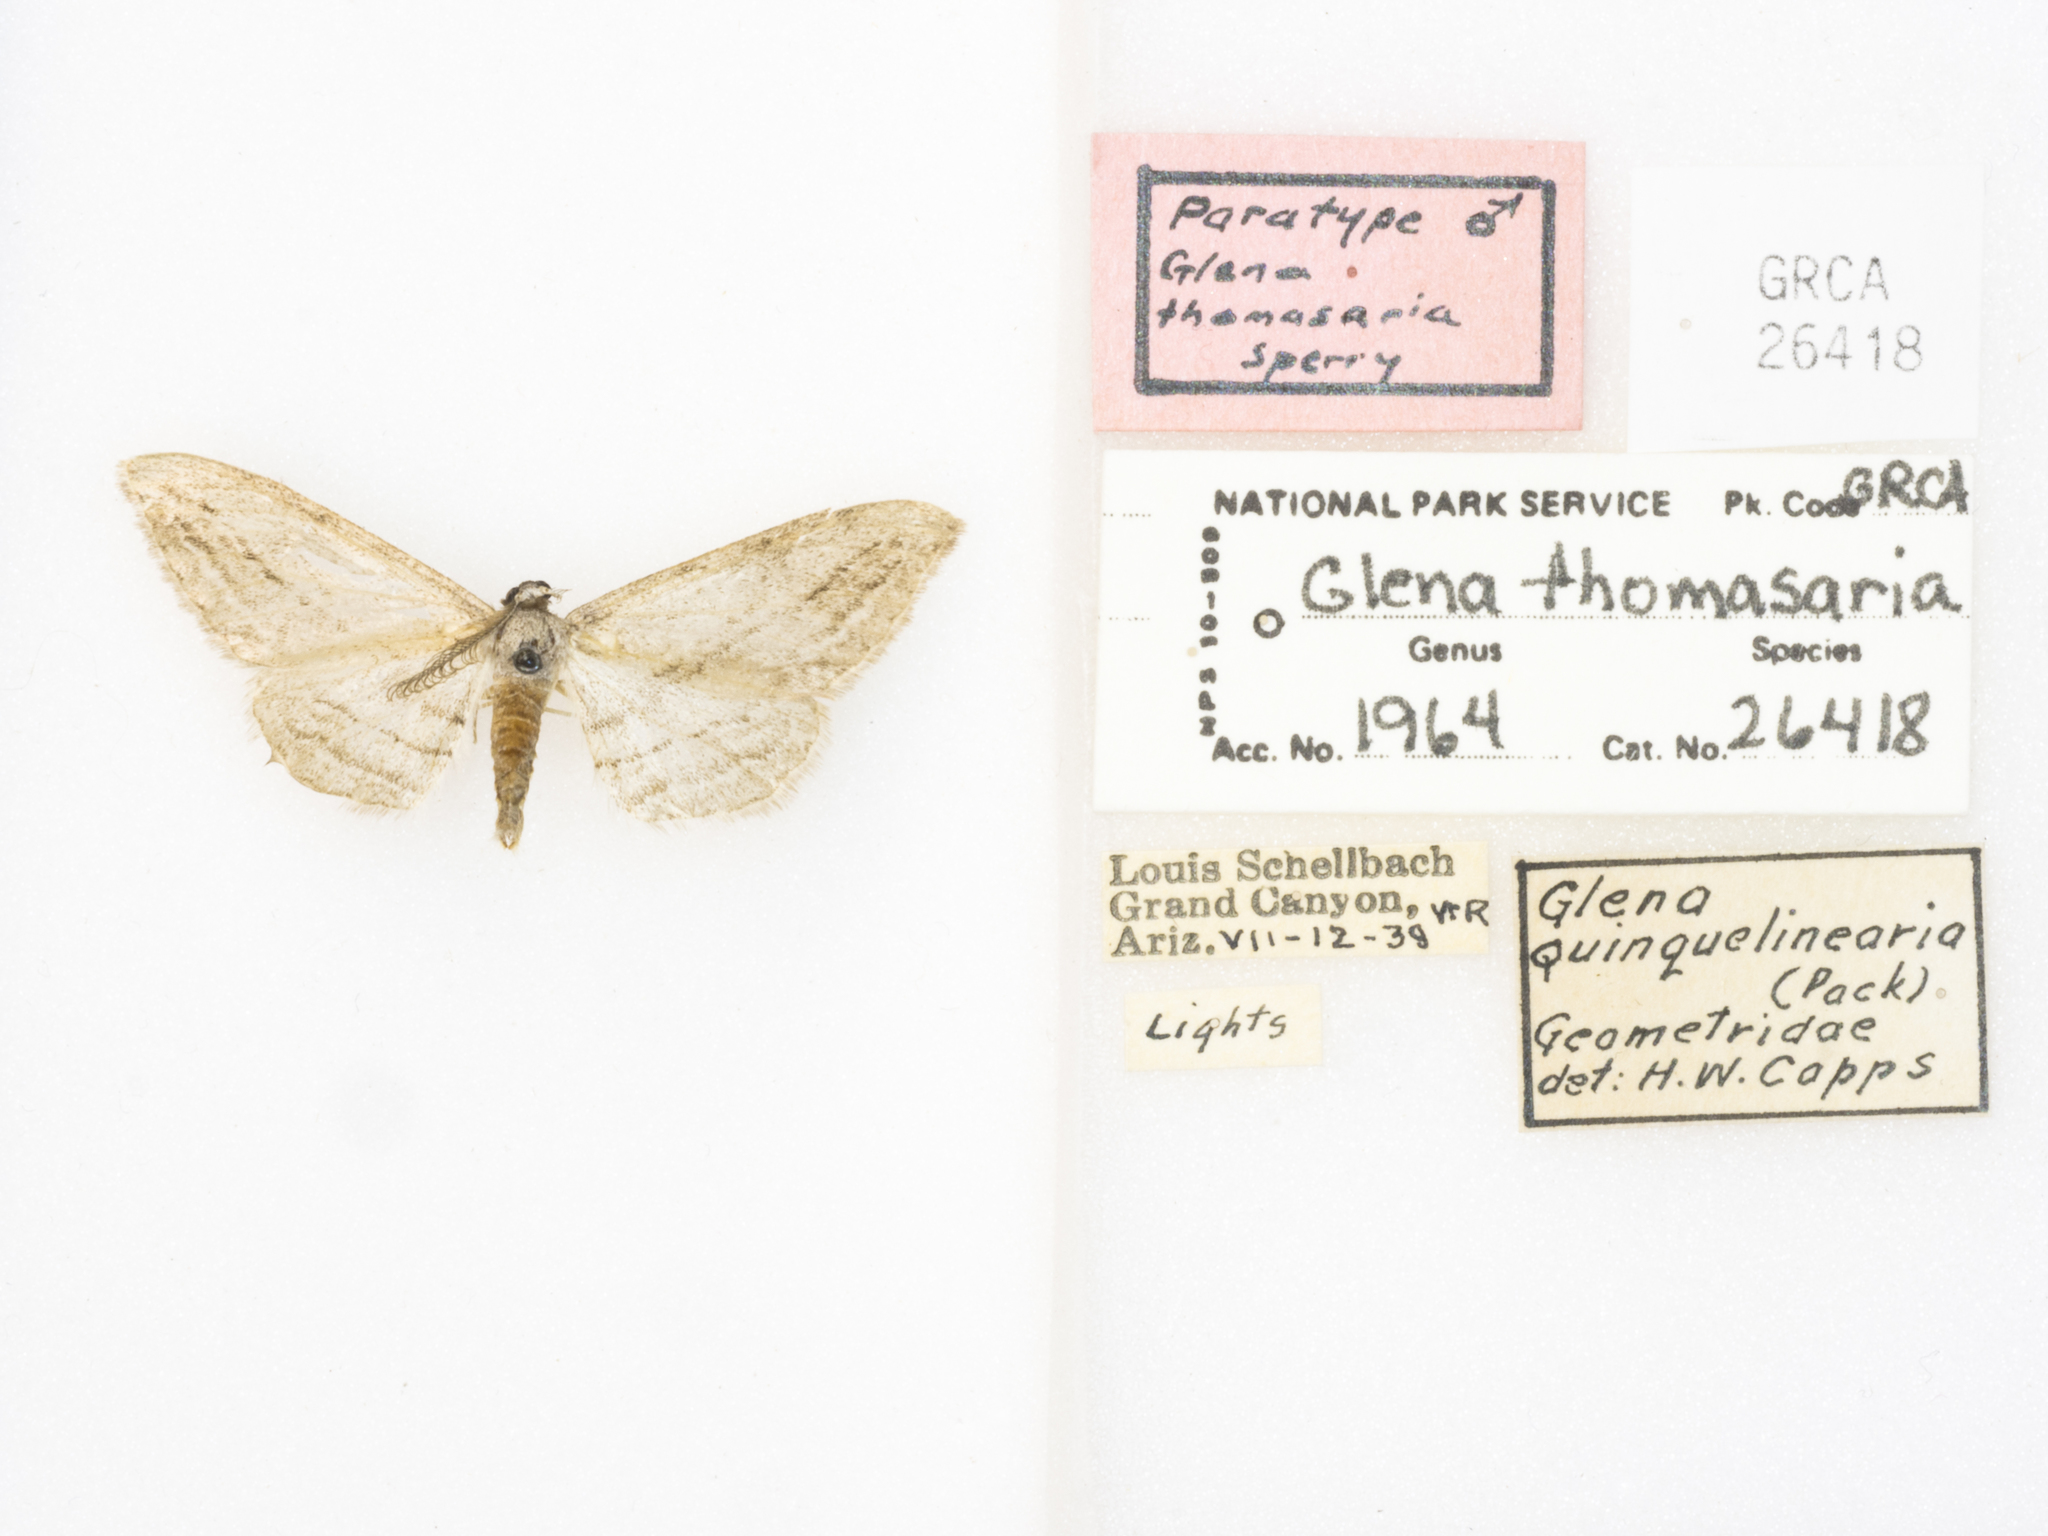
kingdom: Animalia
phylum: Arthropoda
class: Insecta
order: Lepidoptera
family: Geometridae
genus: Glena
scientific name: Glena interpunctata
